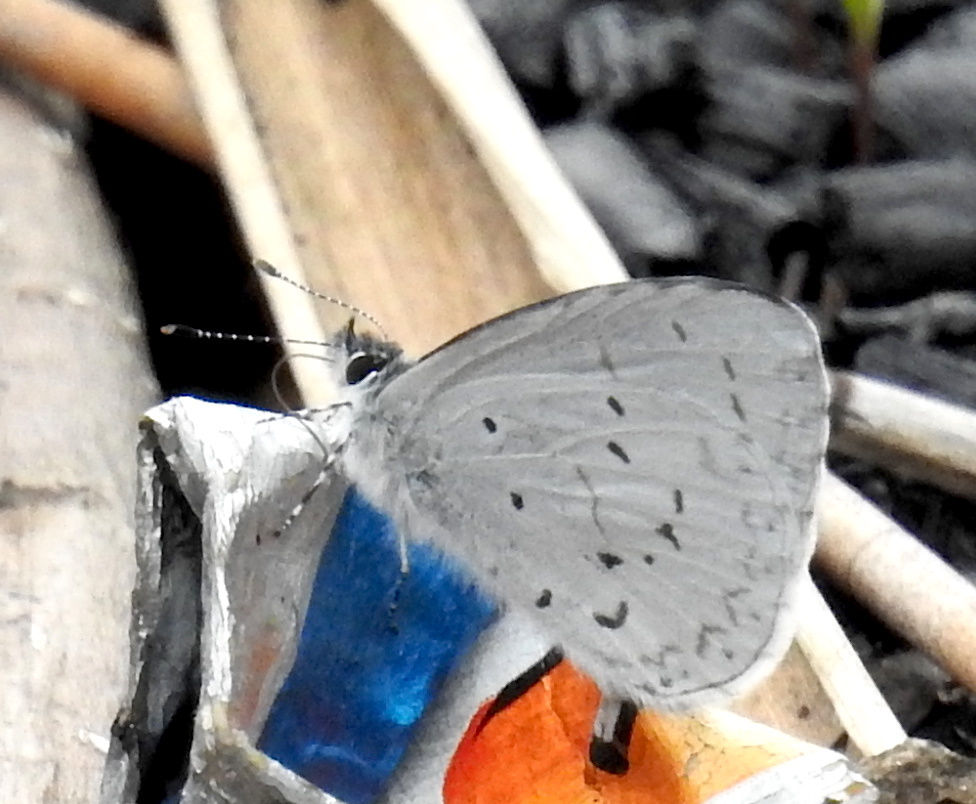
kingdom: Animalia
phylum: Arthropoda
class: Insecta
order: Lepidoptera
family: Lycaenidae
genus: Udara
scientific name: Udara dilectus
